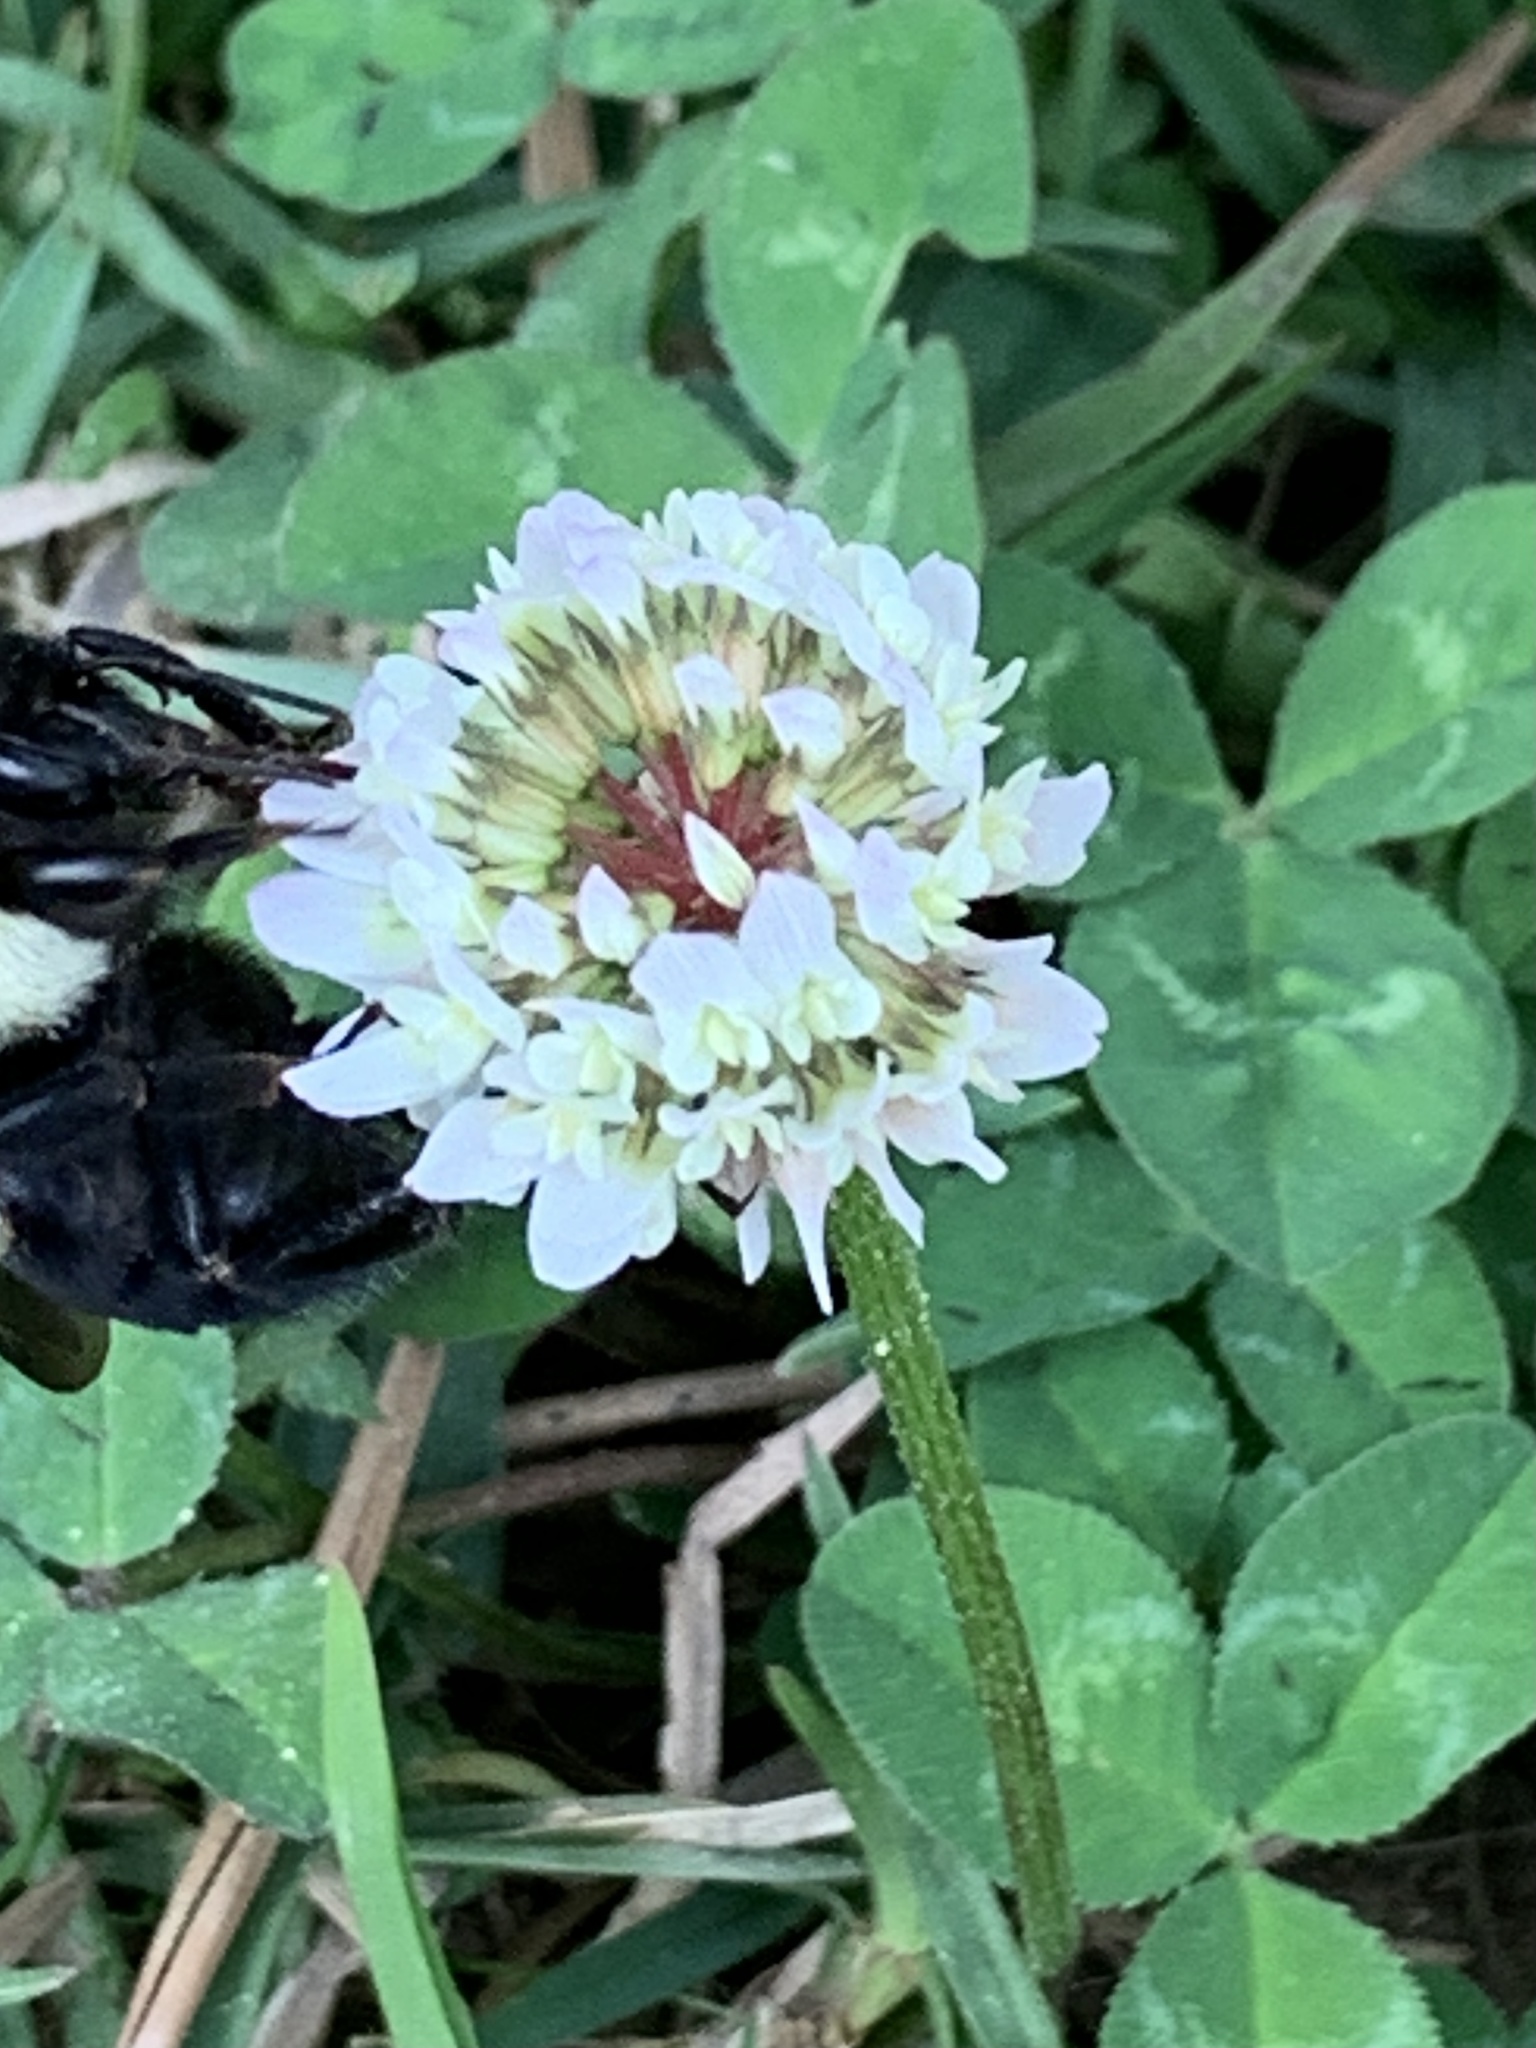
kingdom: Plantae
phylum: Tracheophyta
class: Magnoliopsida
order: Fabales
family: Fabaceae
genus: Trifolium
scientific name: Trifolium repens
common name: White clover
